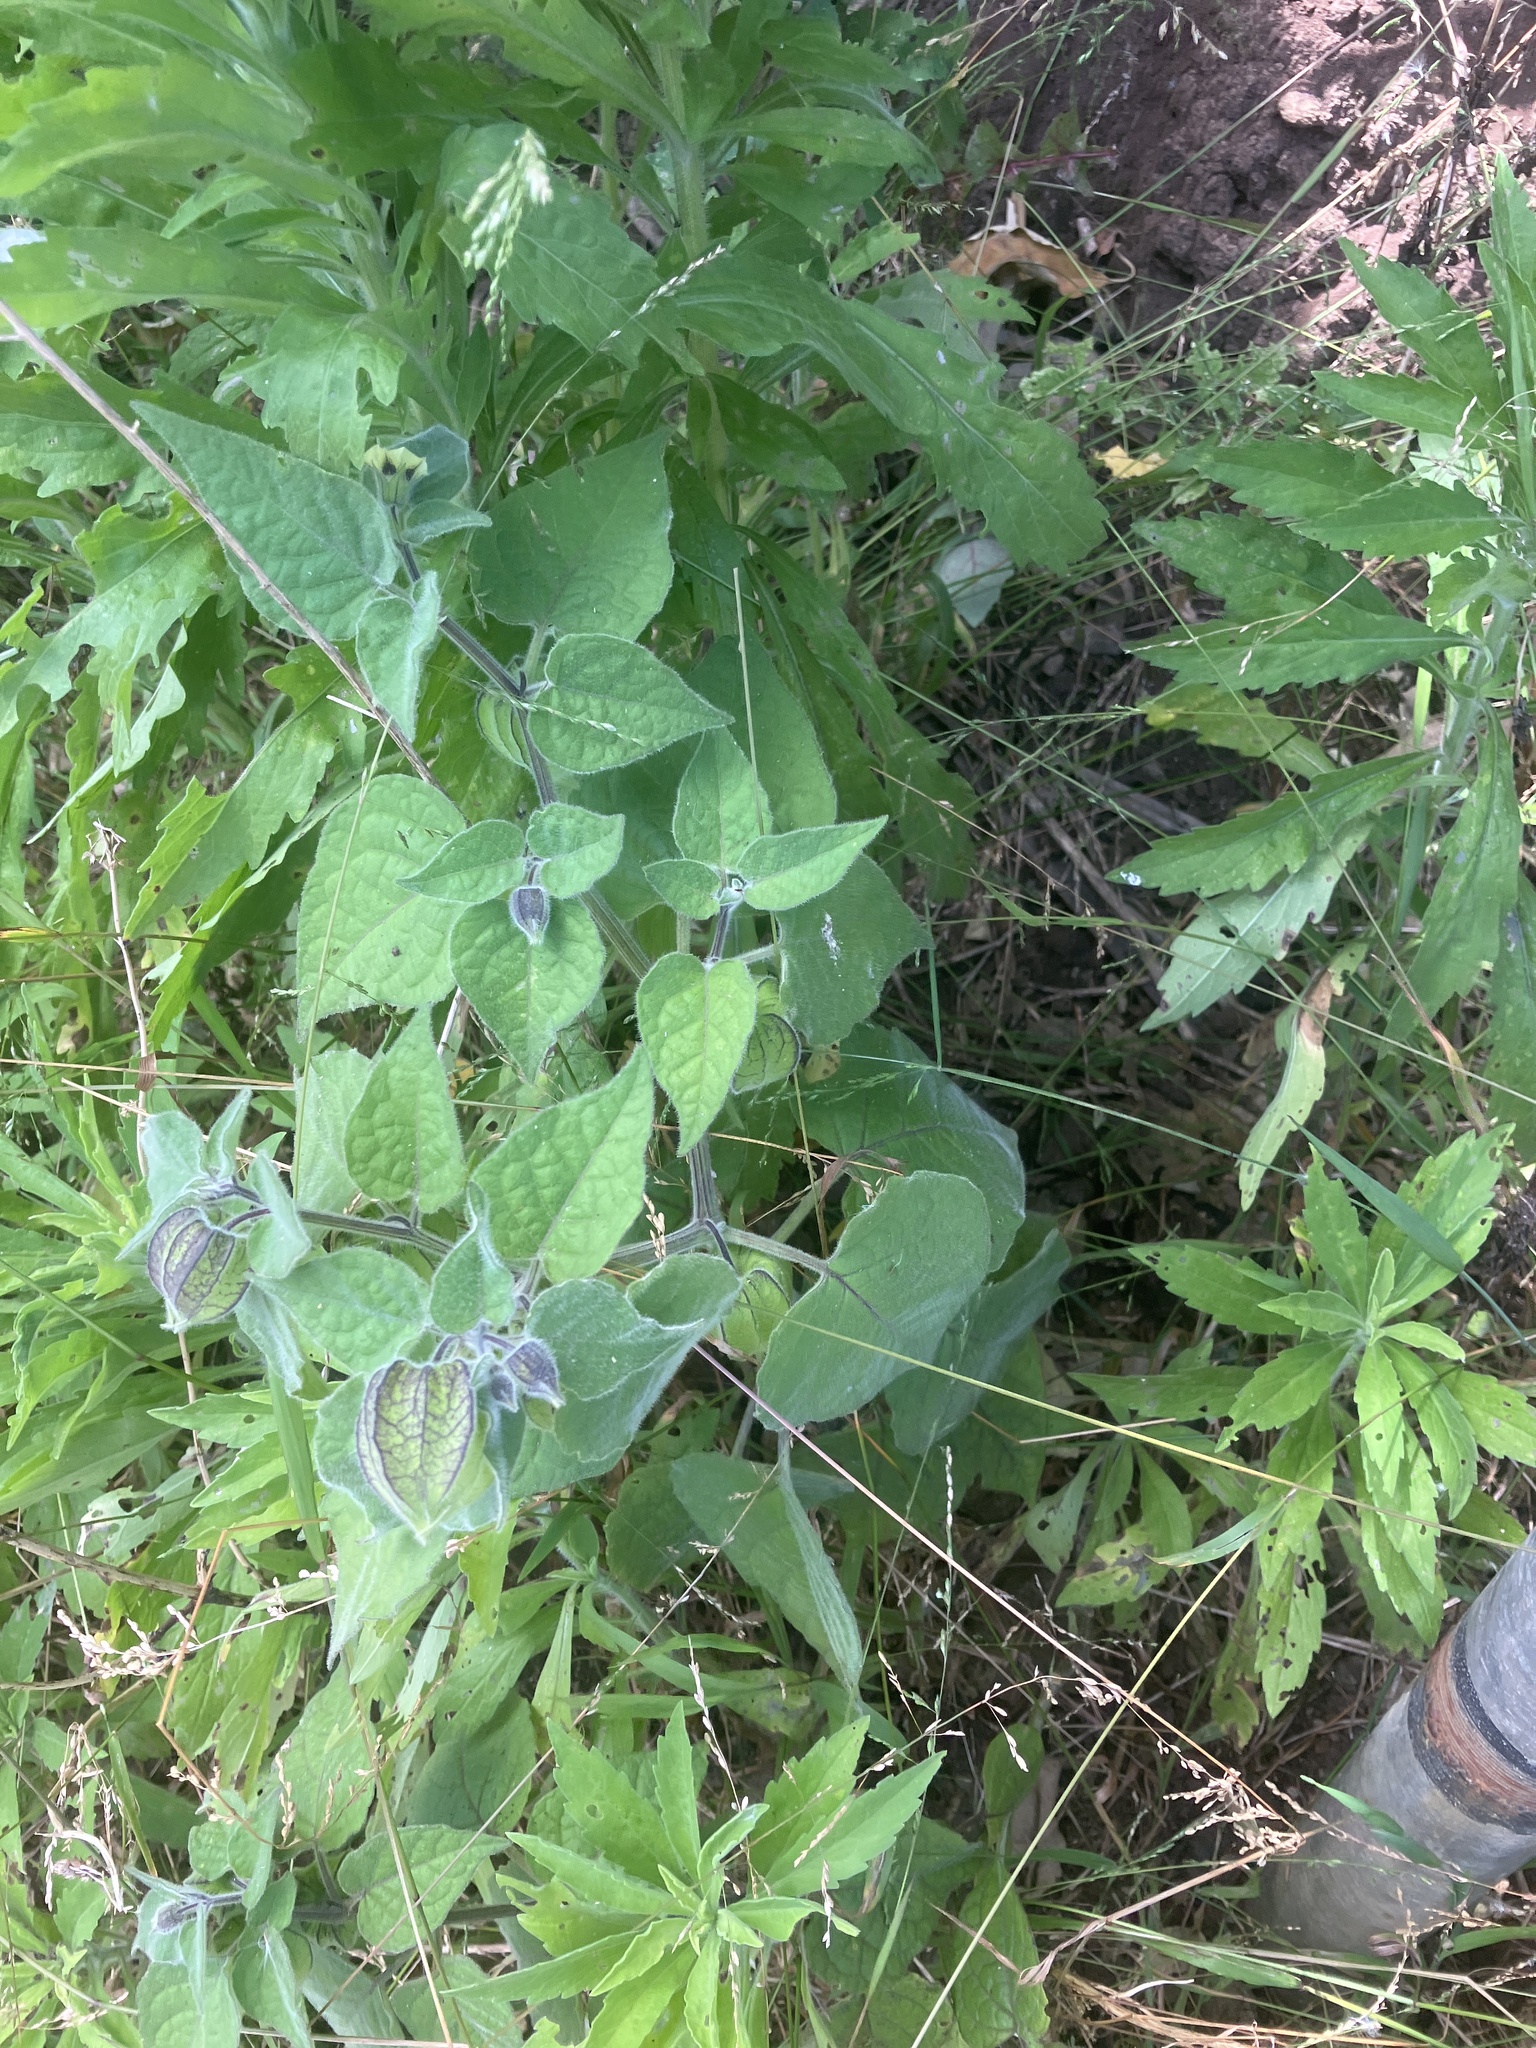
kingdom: Plantae
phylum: Tracheophyta
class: Magnoliopsida
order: Solanales
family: Solanaceae
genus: Physalis
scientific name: Physalis peruviana
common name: Cape-gooseberry
